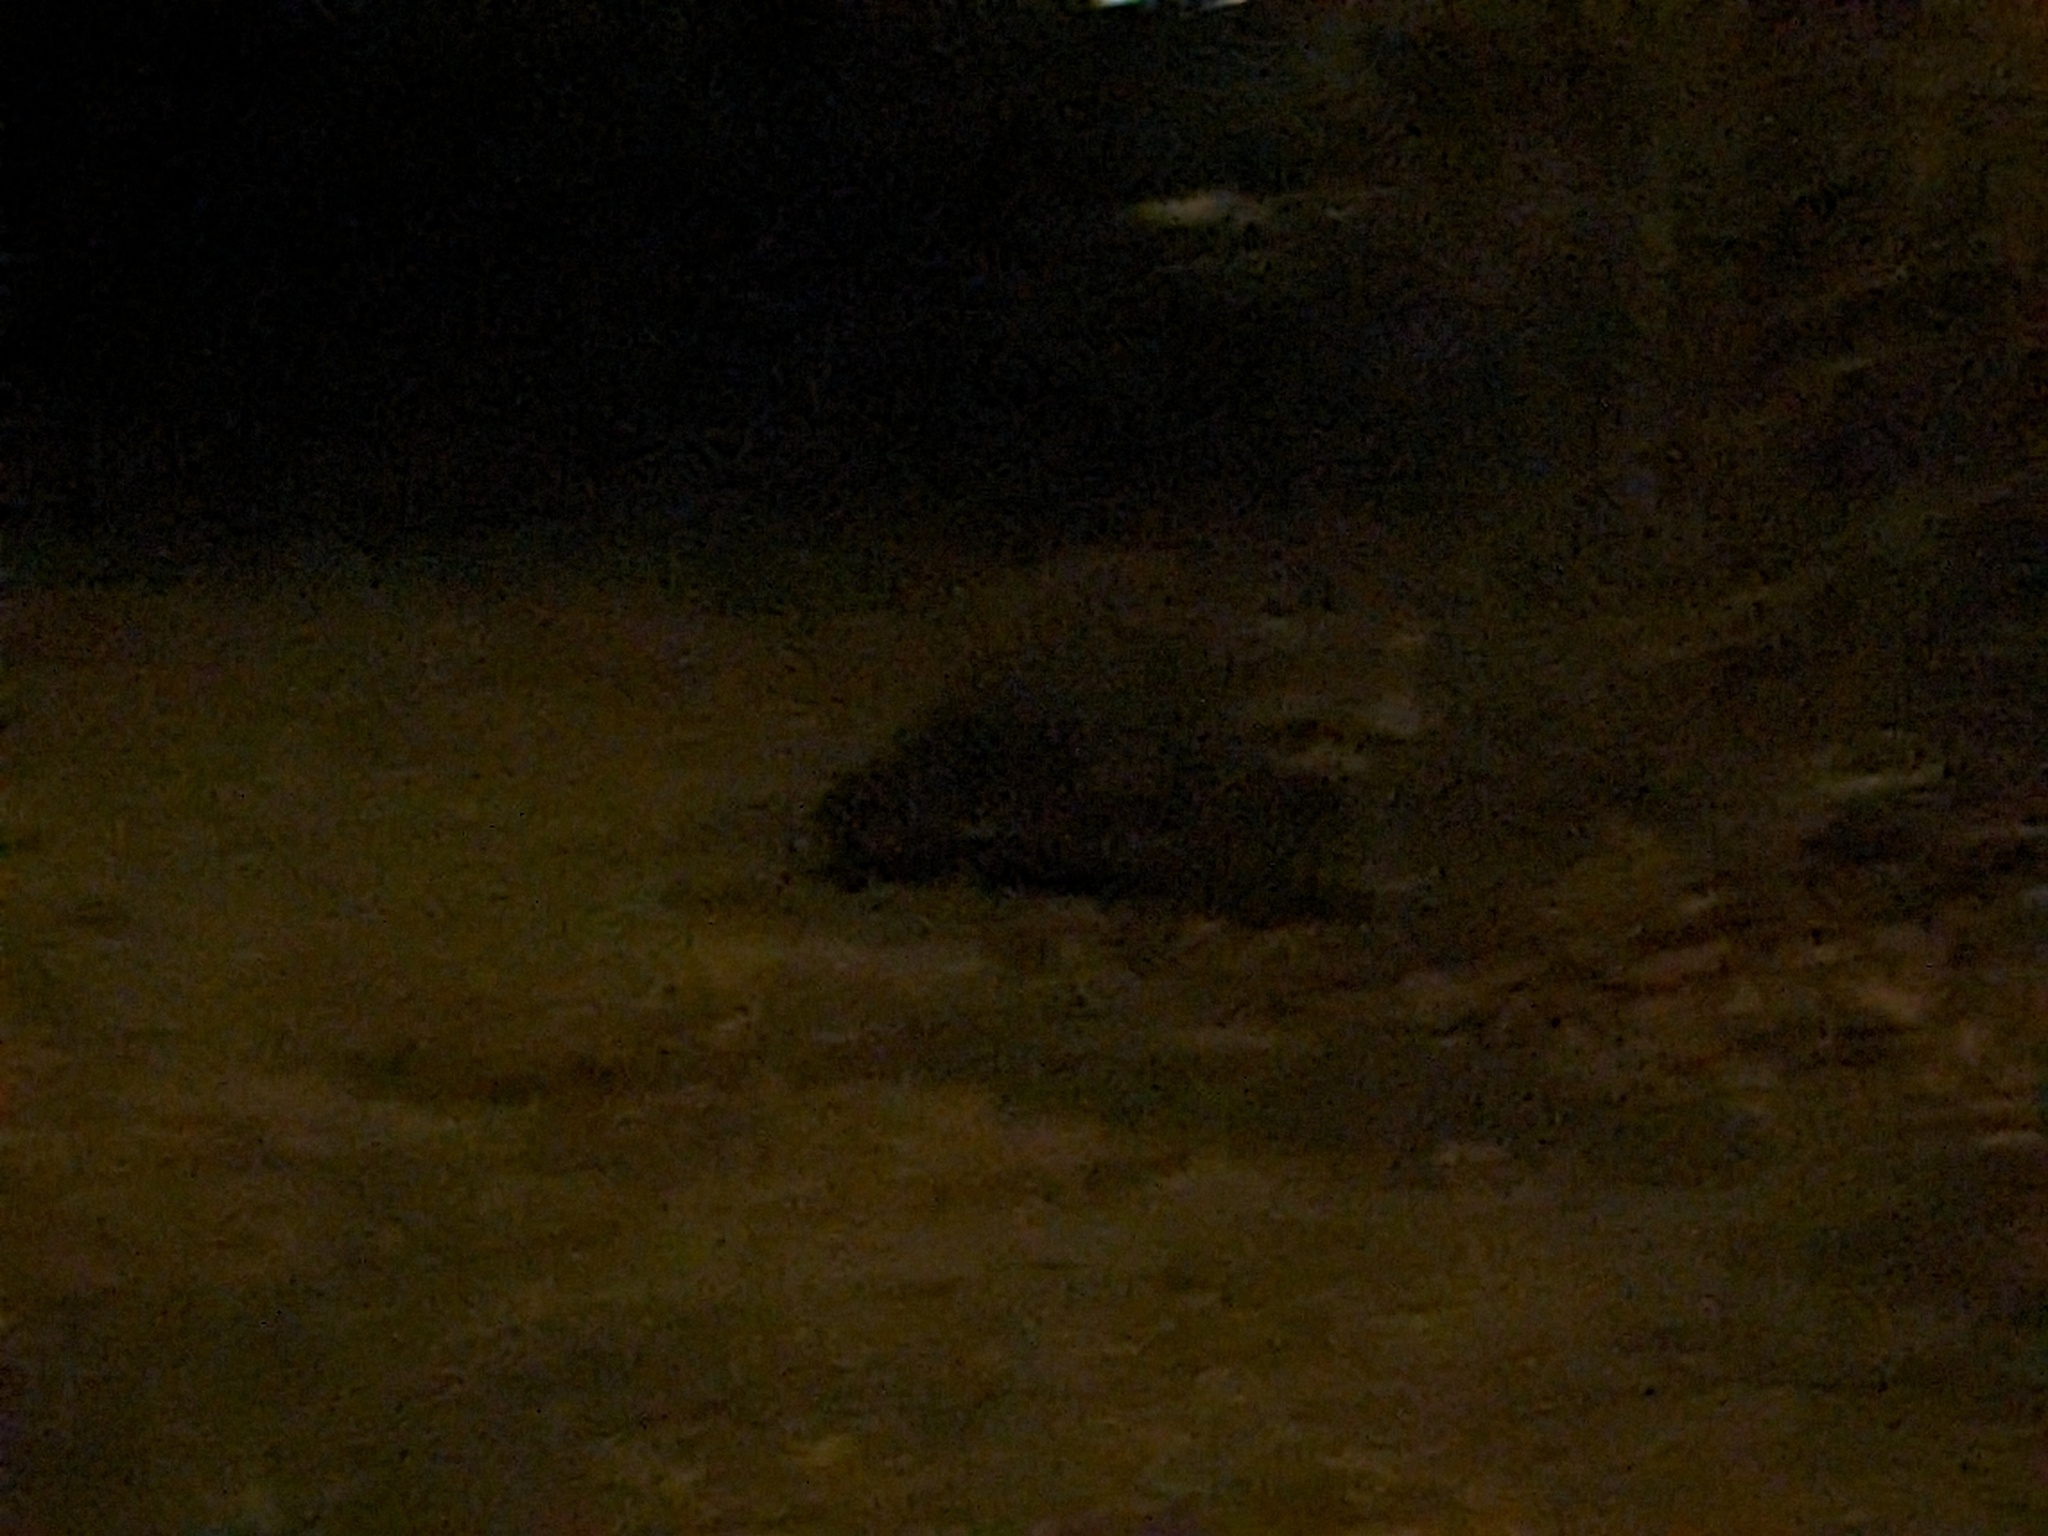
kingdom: Animalia
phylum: Chordata
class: Mammalia
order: Carnivora
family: Procyonidae
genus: Procyon
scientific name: Procyon lotor
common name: Raccoon
